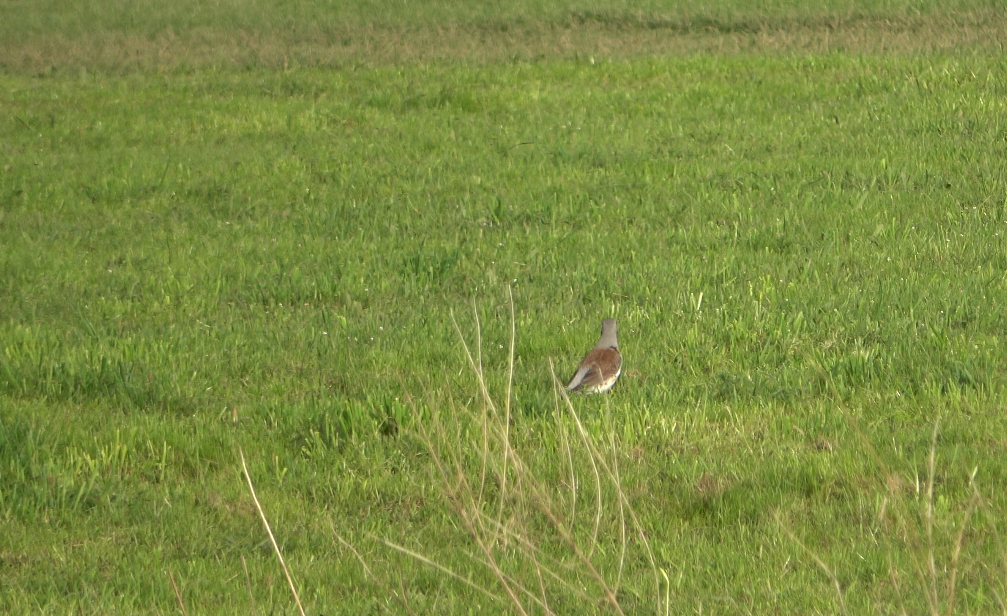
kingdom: Animalia
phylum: Chordata
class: Aves
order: Passeriformes
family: Turdidae
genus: Turdus
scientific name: Turdus pilaris
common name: Fieldfare
